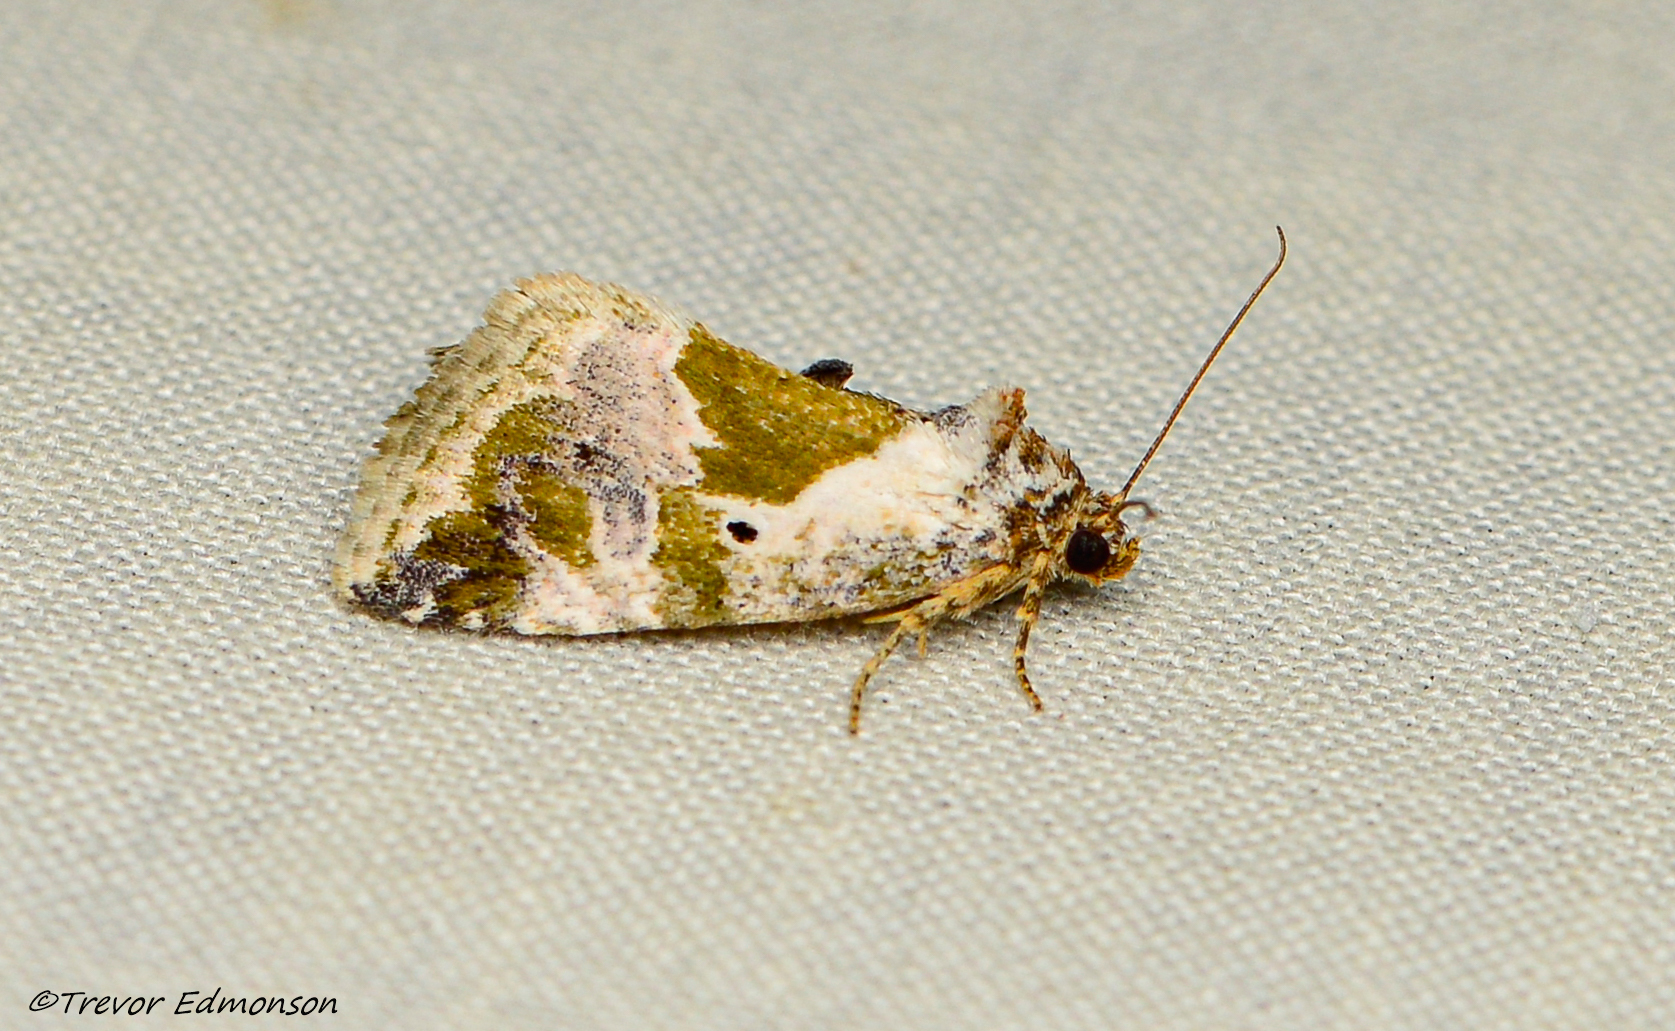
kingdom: Animalia
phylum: Arthropoda
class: Insecta
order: Lepidoptera
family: Noctuidae
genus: Maliattha
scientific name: Maliattha synochitis
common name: Black-dotted glyph
